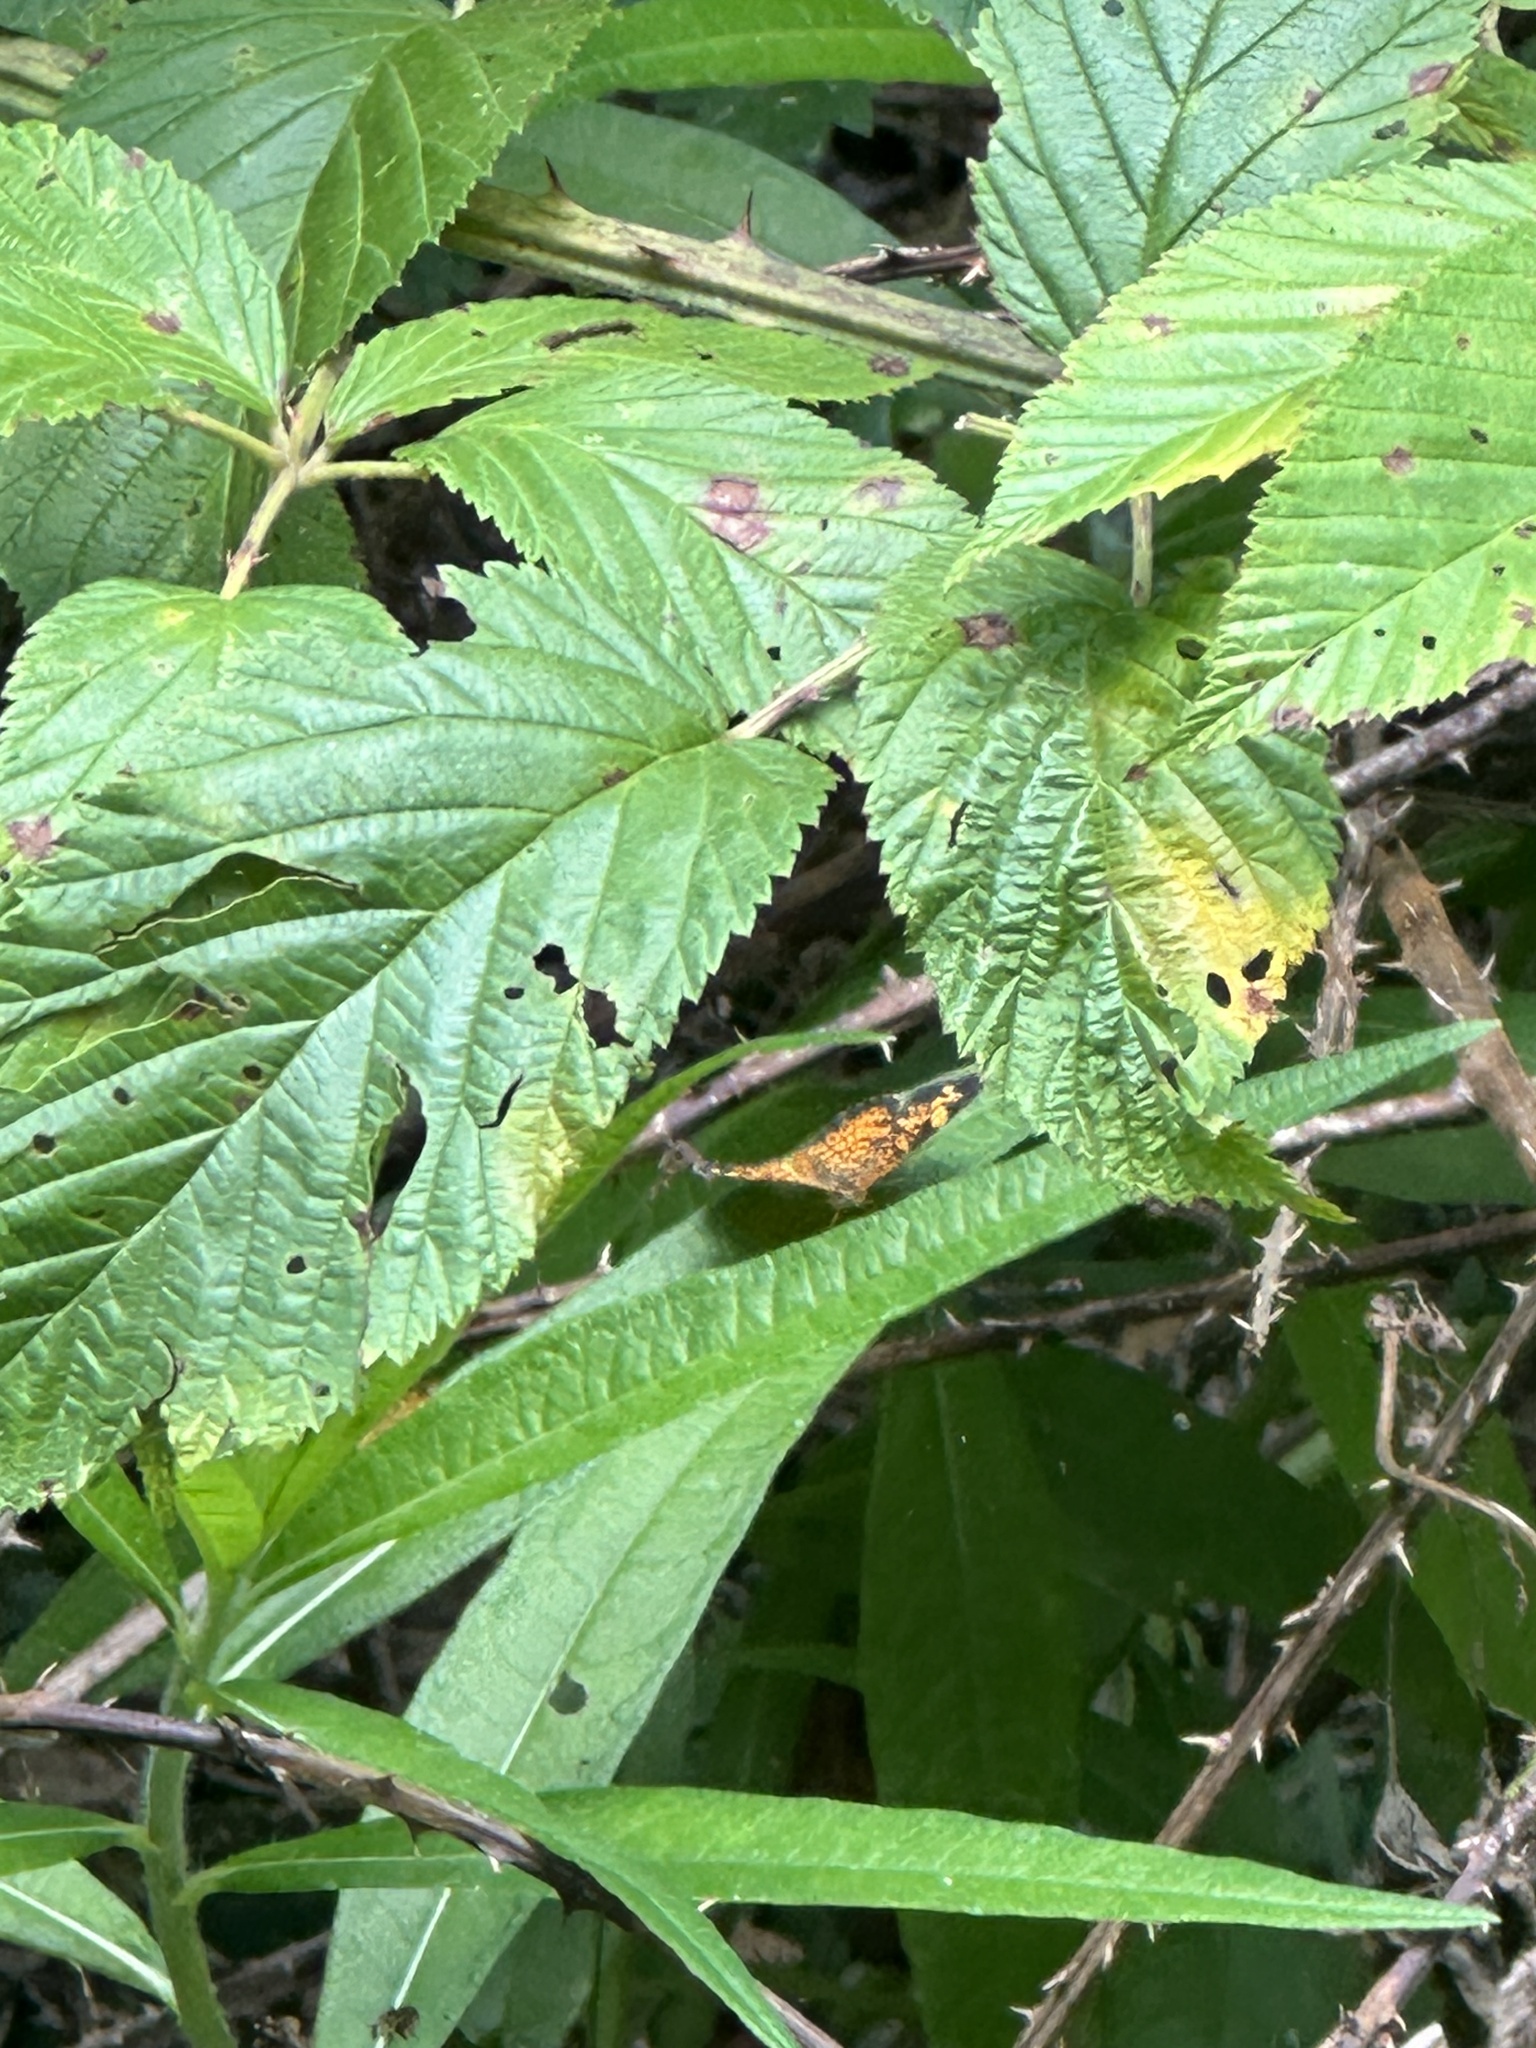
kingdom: Animalia
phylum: Arthropoda
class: Insecta
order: Lepidoptera
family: Nymphalidae
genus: Chlosyne
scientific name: Chlosyne nycteis
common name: Silvery checkerspot
